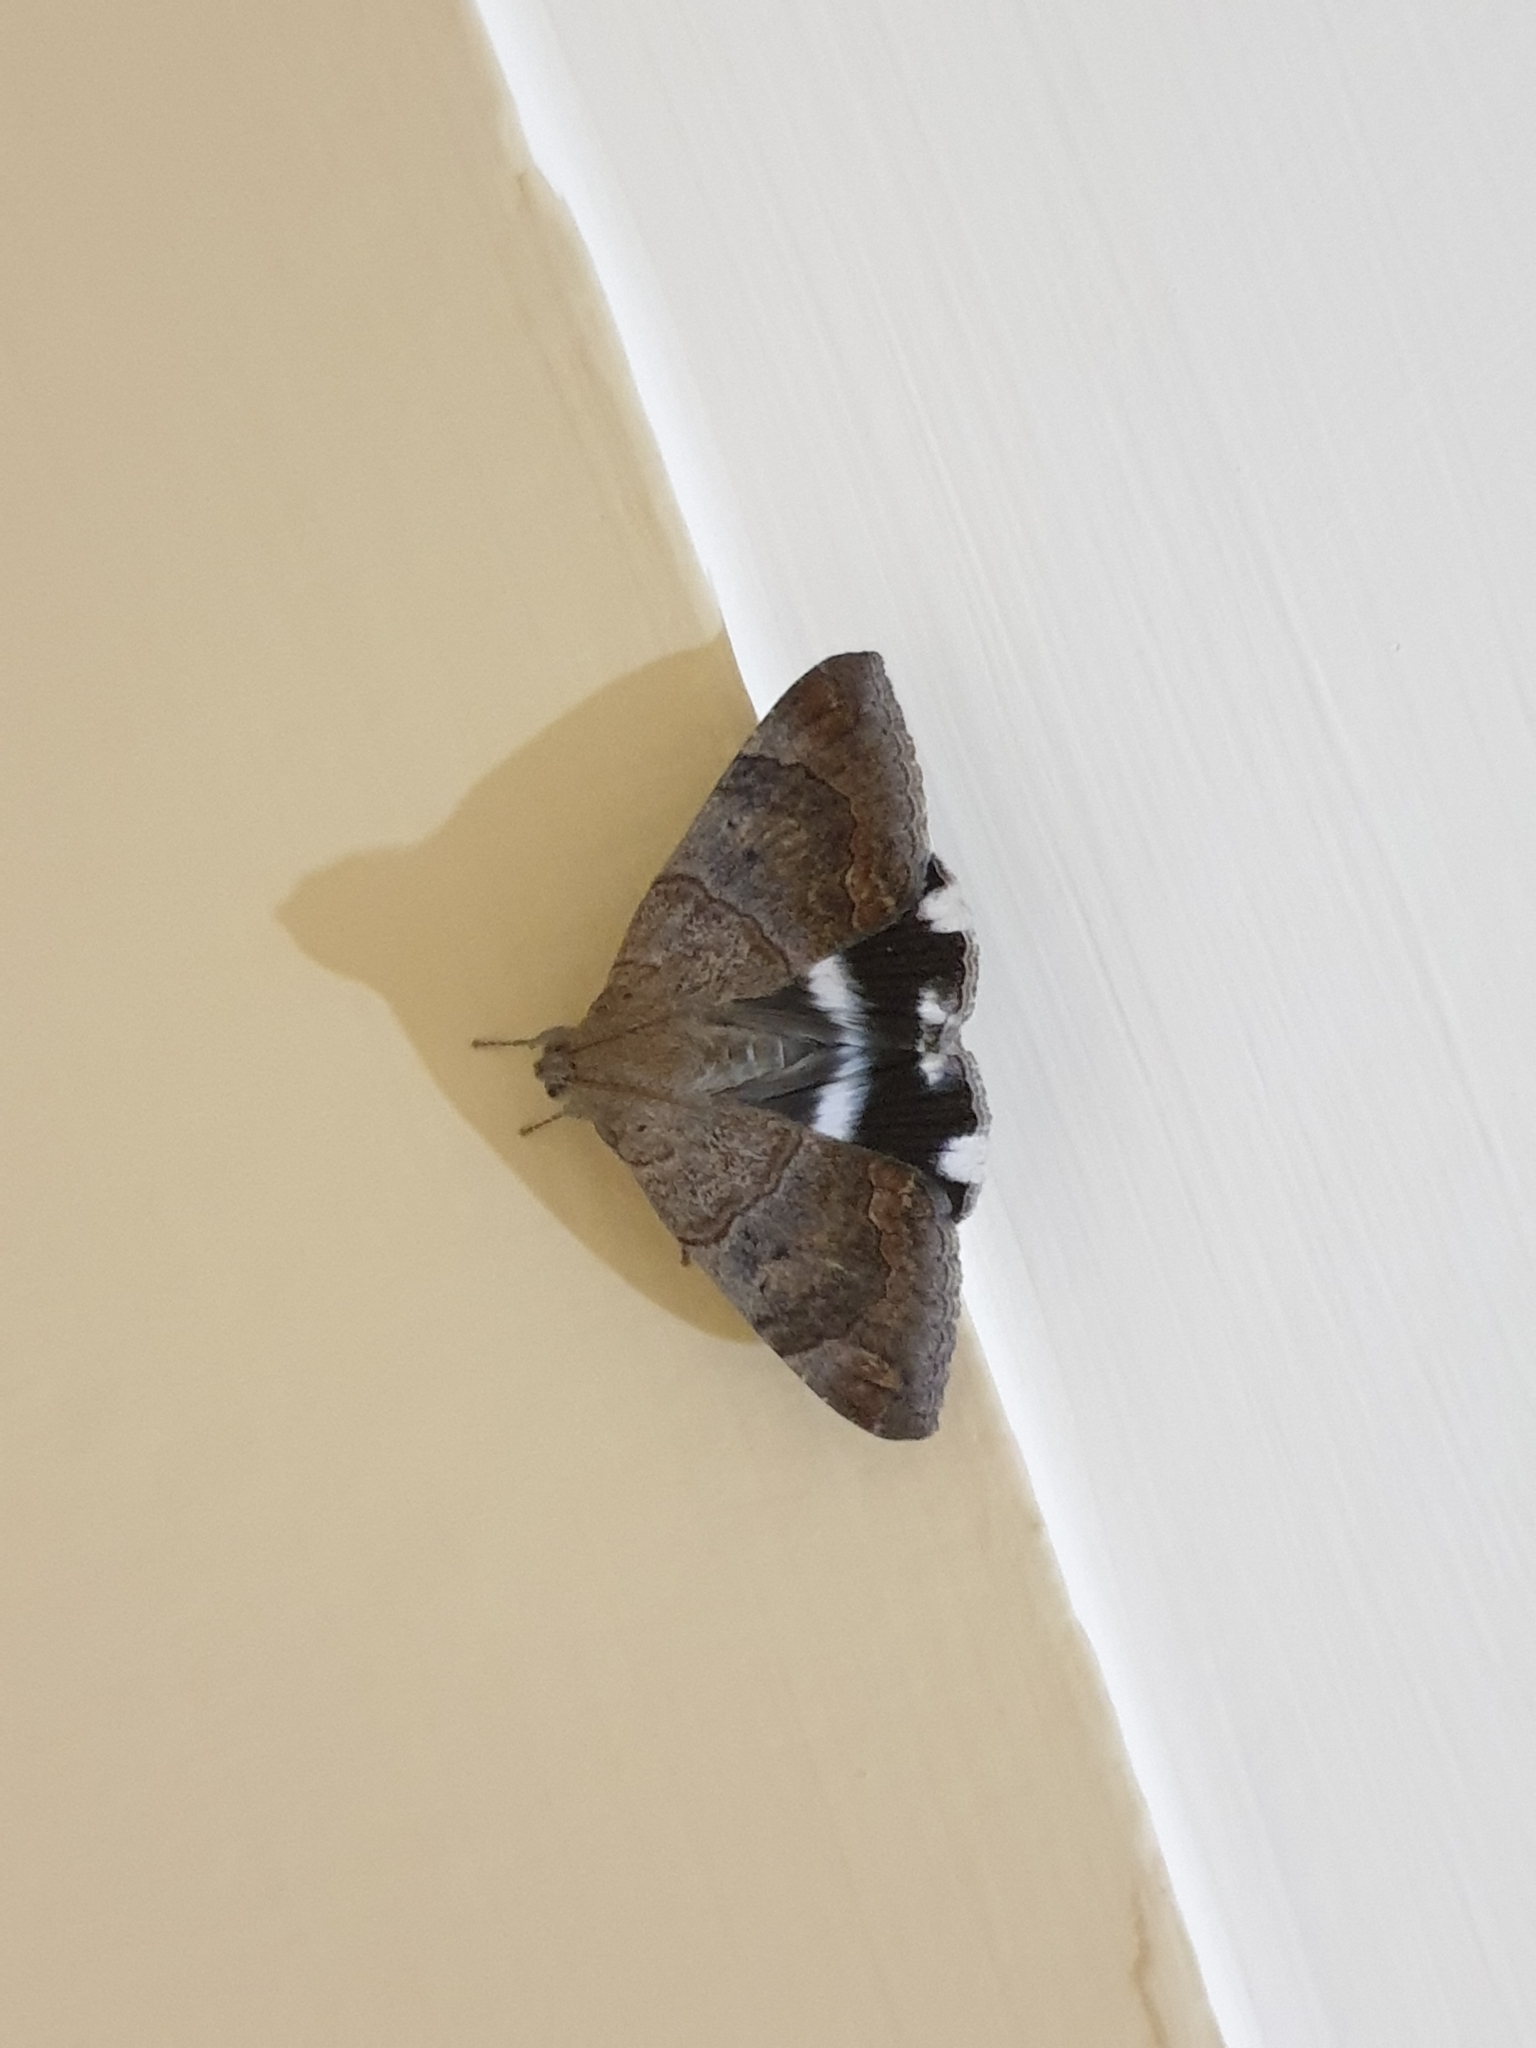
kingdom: Animalia
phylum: Arthropoda
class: Insecta
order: Lepidoptera
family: Erebidae
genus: Achaea
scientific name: Achaea janata
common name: Croton caterpillar
